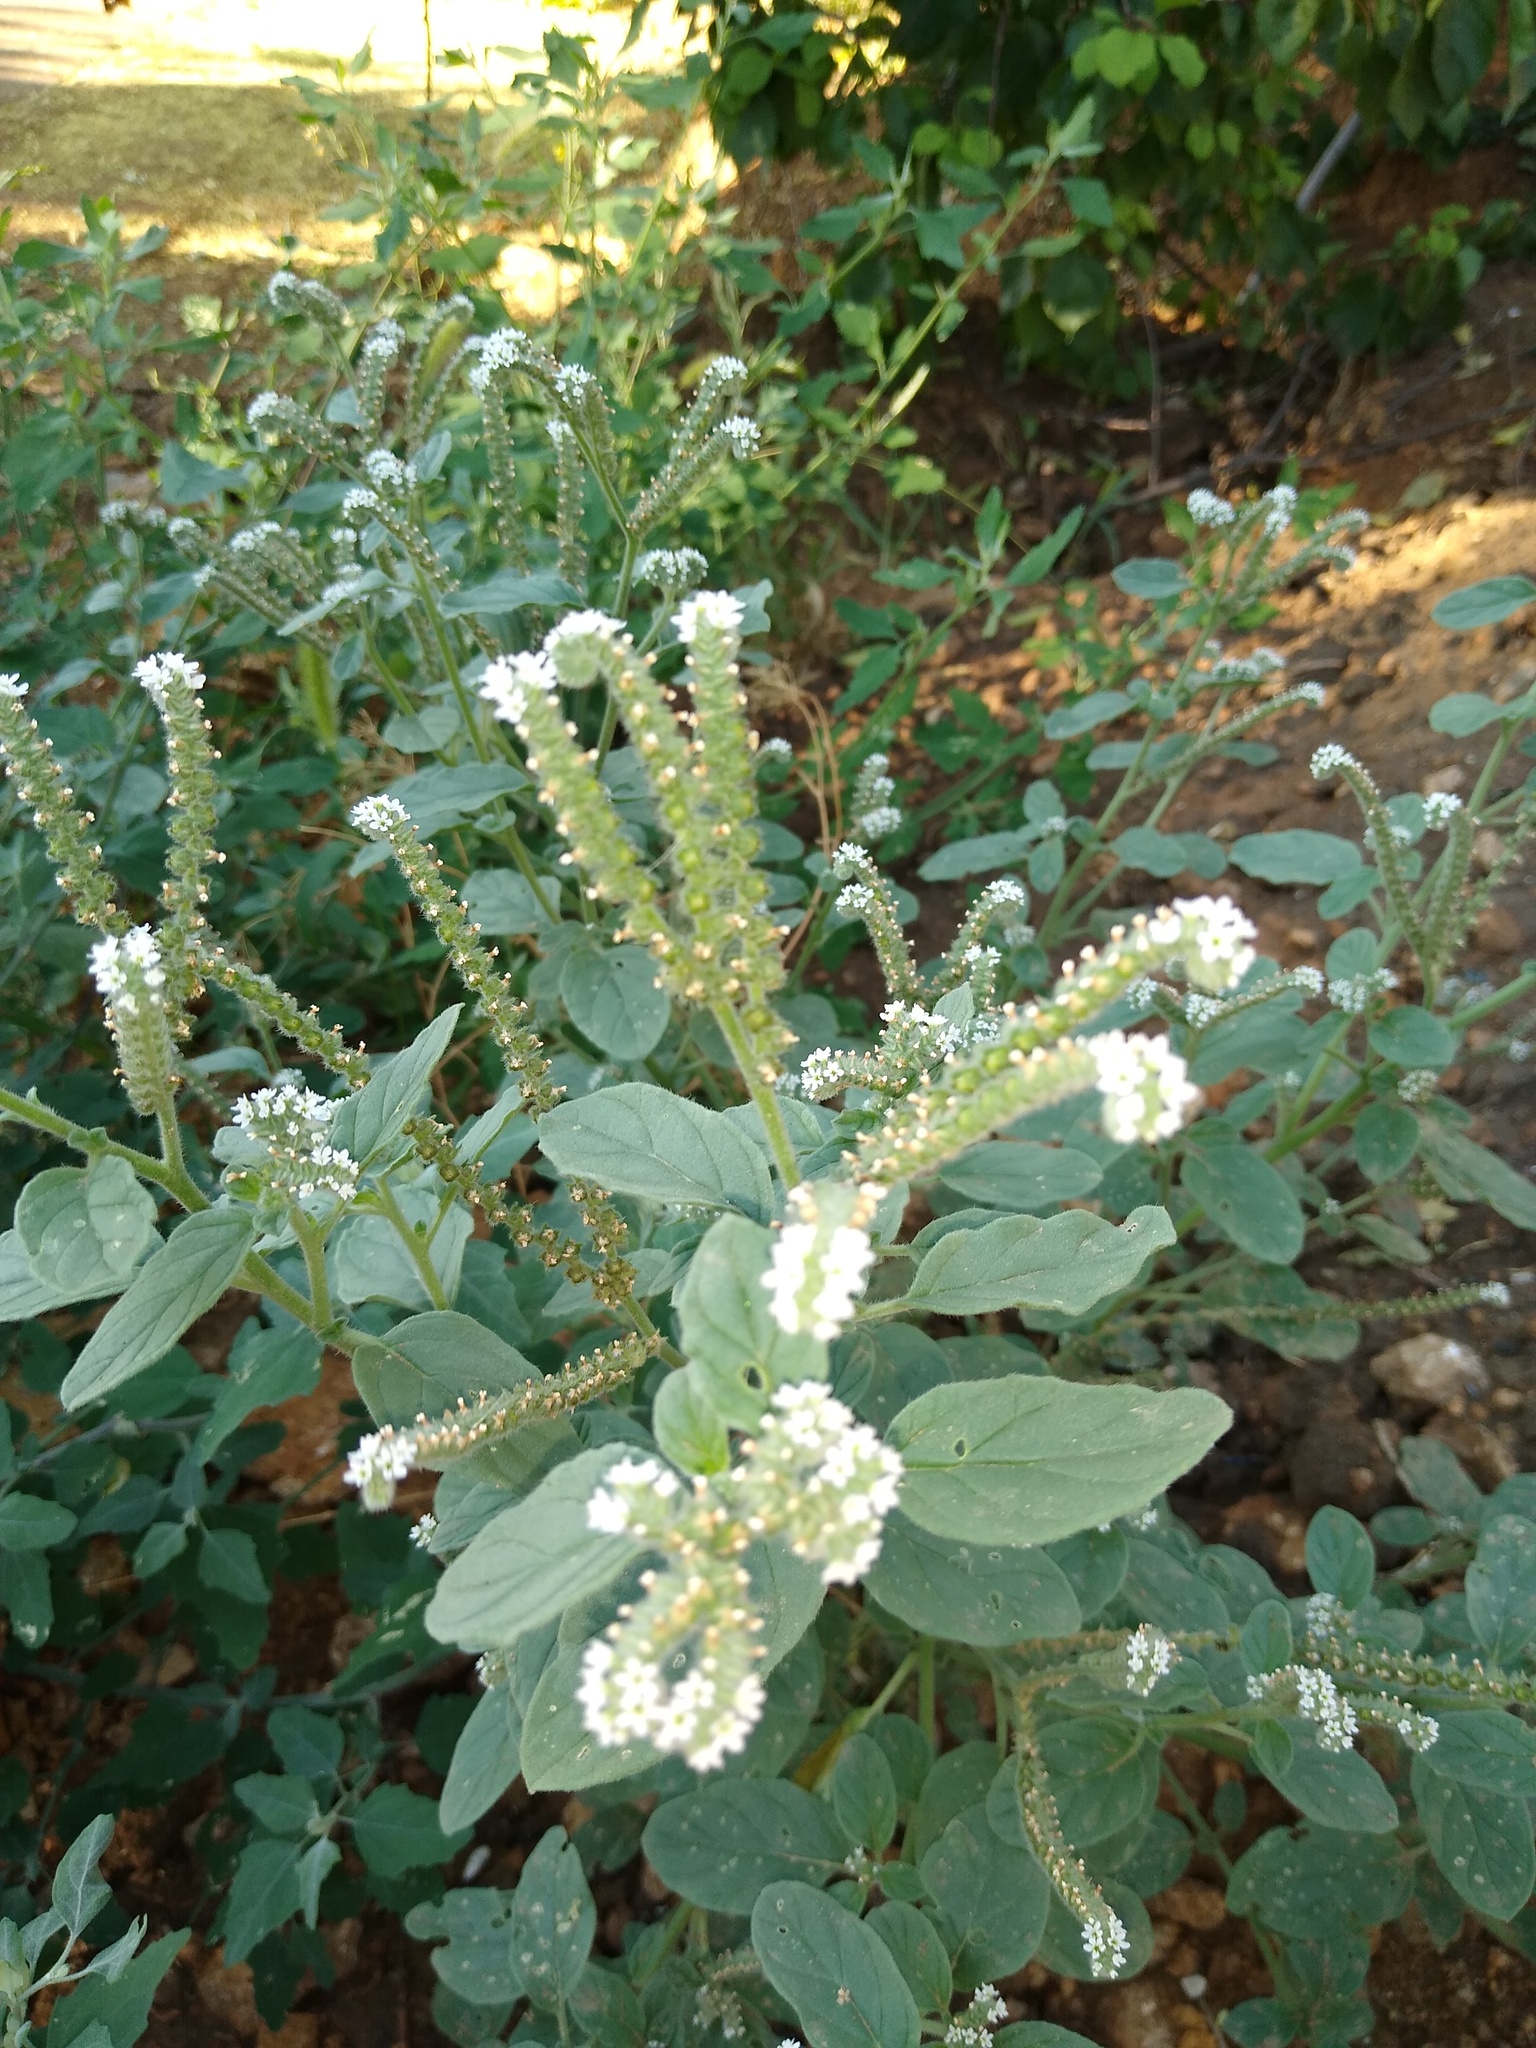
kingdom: Plantae
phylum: Tracheophyta
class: Magnoliopsida
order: Boraginales
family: Heliotropiaceae
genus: Heliotropium
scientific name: Heliotropium europaeum
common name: European heliotrope
